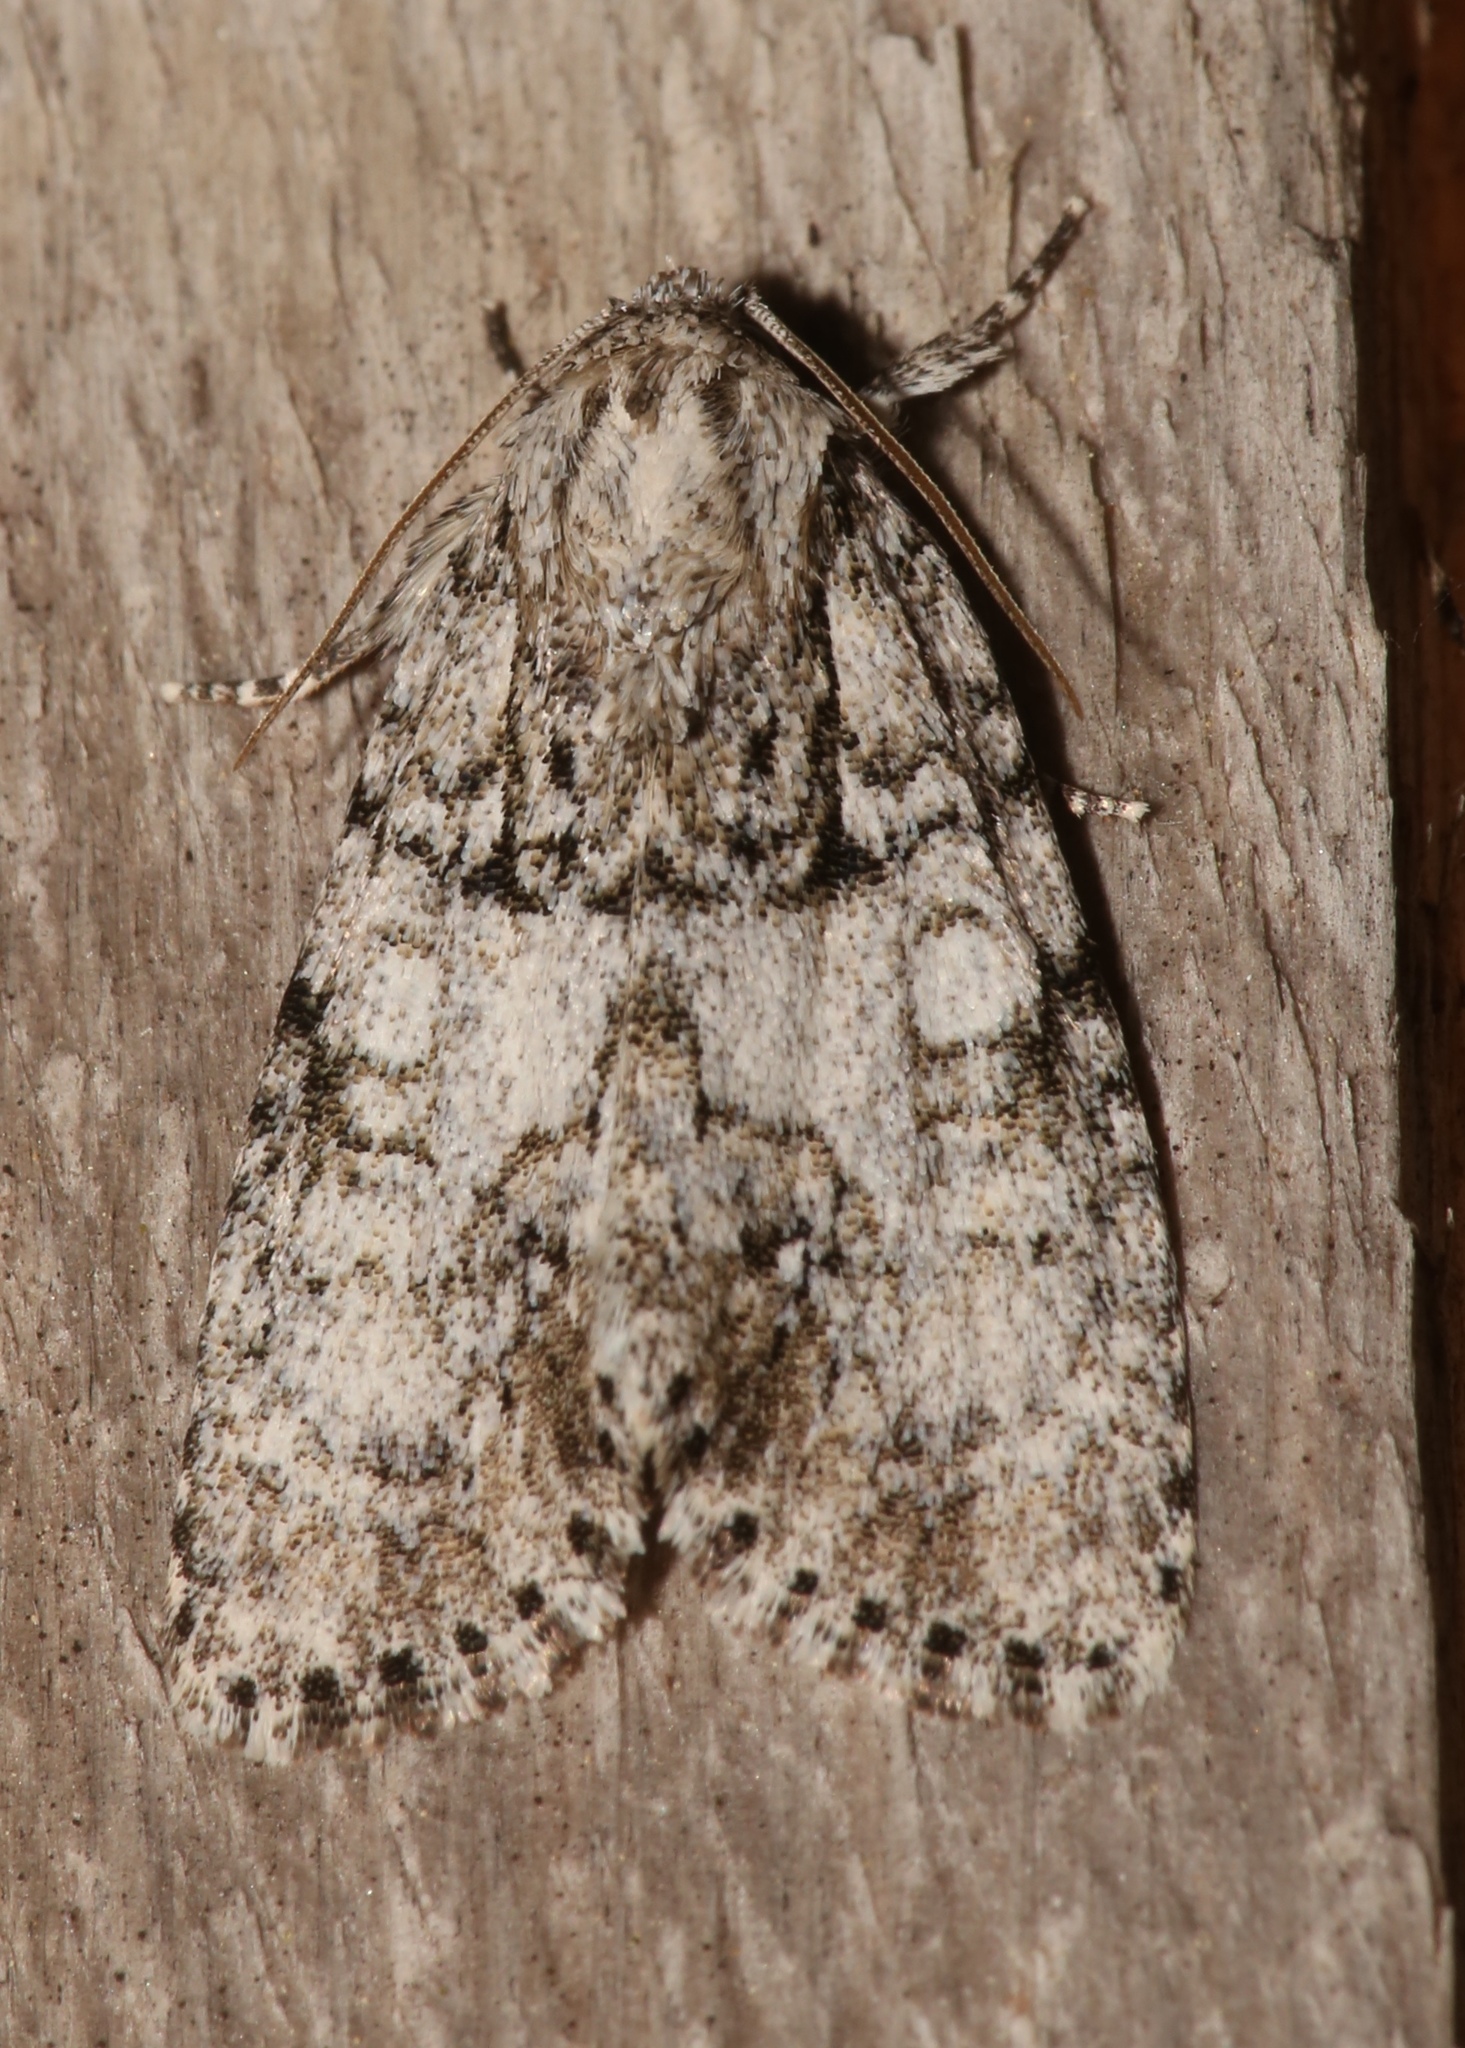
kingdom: Animalia
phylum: Arthropoda
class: Insecta
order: Lepidoptera
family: Noctuidae
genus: Acronicta
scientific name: Acronicta retardata
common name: Maple dagger
